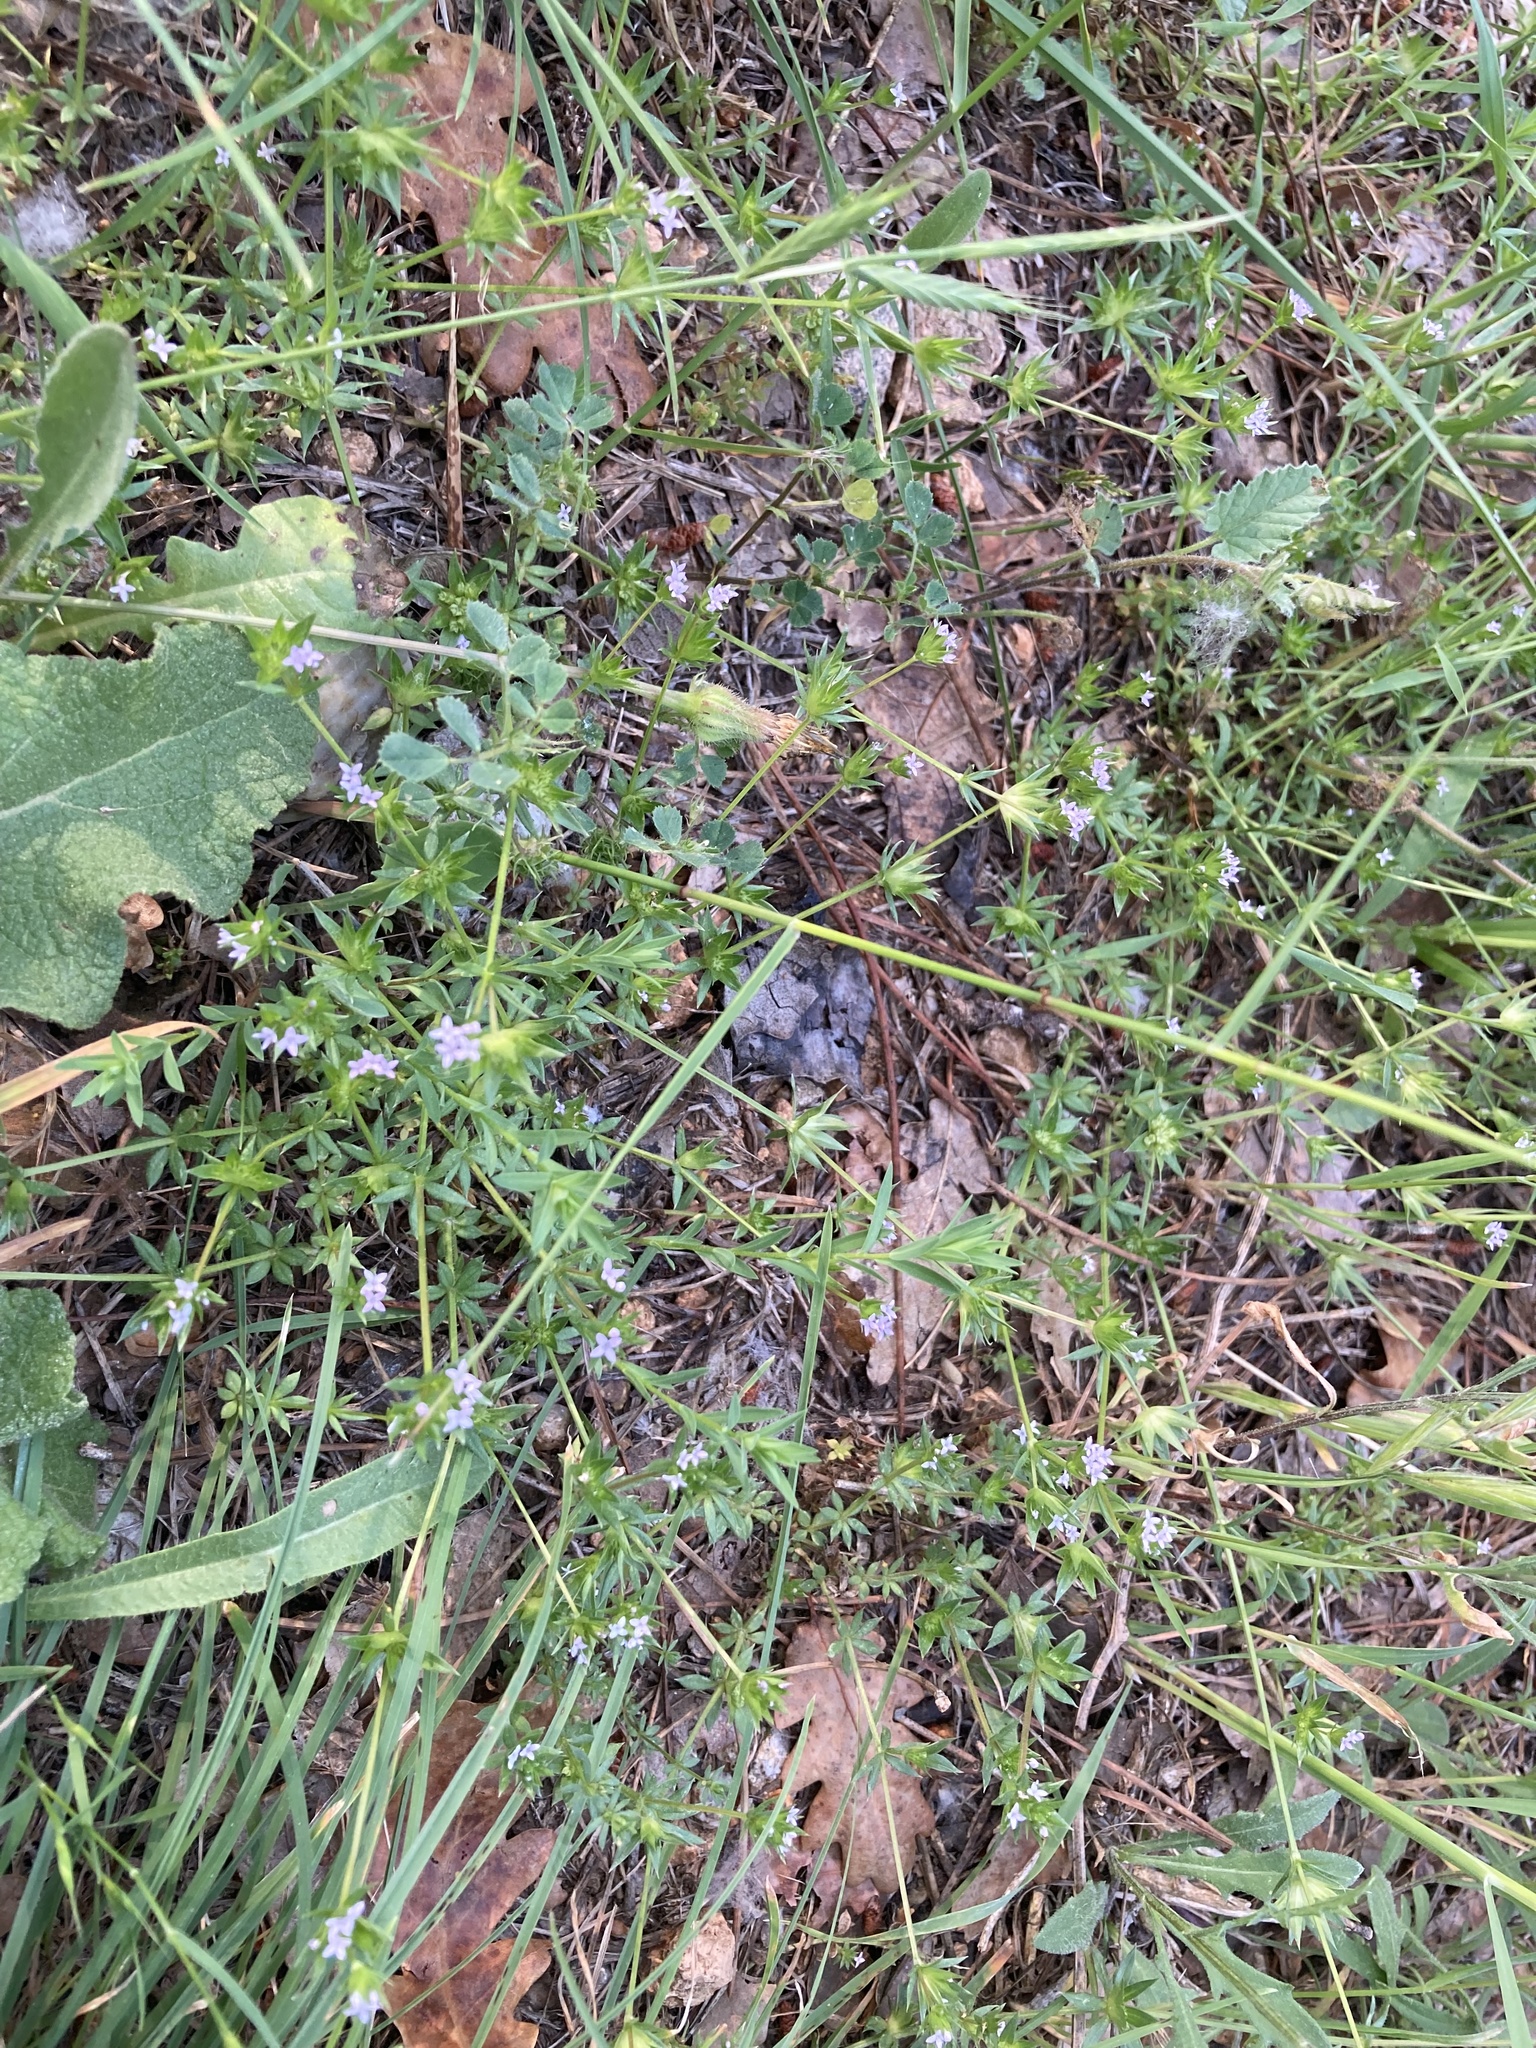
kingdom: Plantae
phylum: Tracheophyta
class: Magnoliopsida
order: Gentianales
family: Rubiaceae
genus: Sherardia
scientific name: Sherardia arvensis
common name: Field madder
